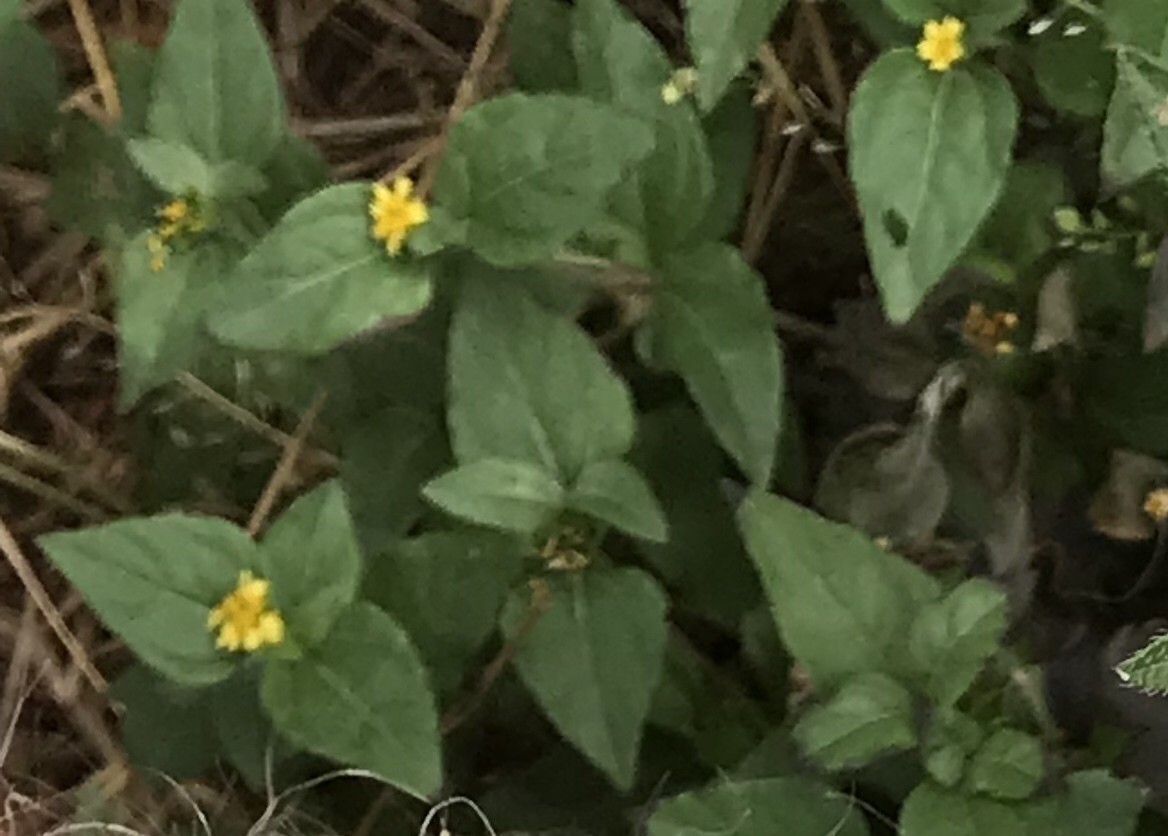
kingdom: Plantae
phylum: Tracheophyta
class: Magnoliopsida
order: Asterales
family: Asteraceae
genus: Calyptocarpus
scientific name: Calyptocarpus vialis
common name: Straggler daisy
